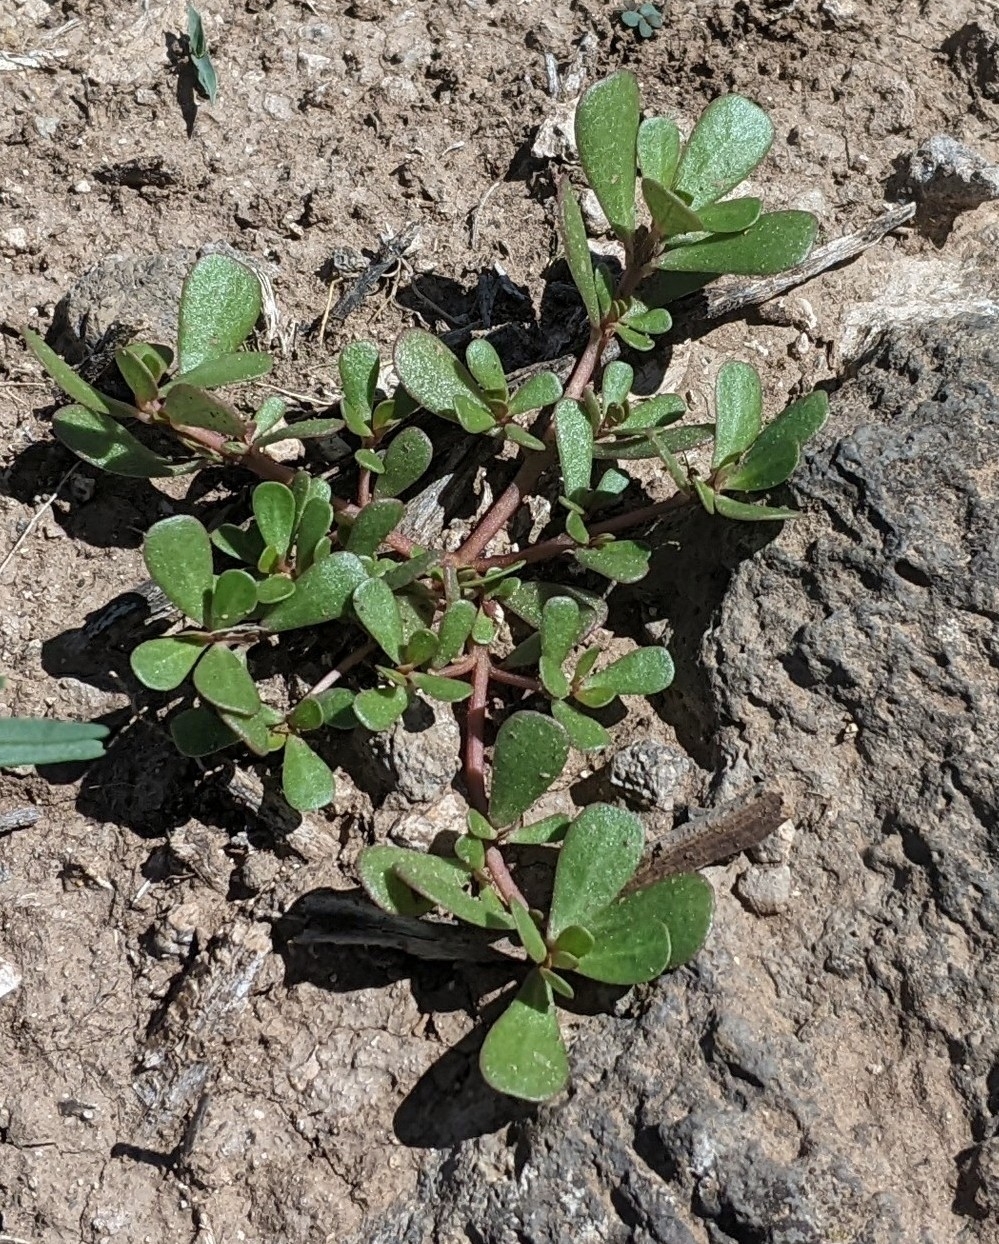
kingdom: Plantae
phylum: Tracheophyta
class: Magnoliopsida
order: Caryophyllales
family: Portulacaceae
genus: Portulaca
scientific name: Portulaca oleracea
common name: Common purslane
